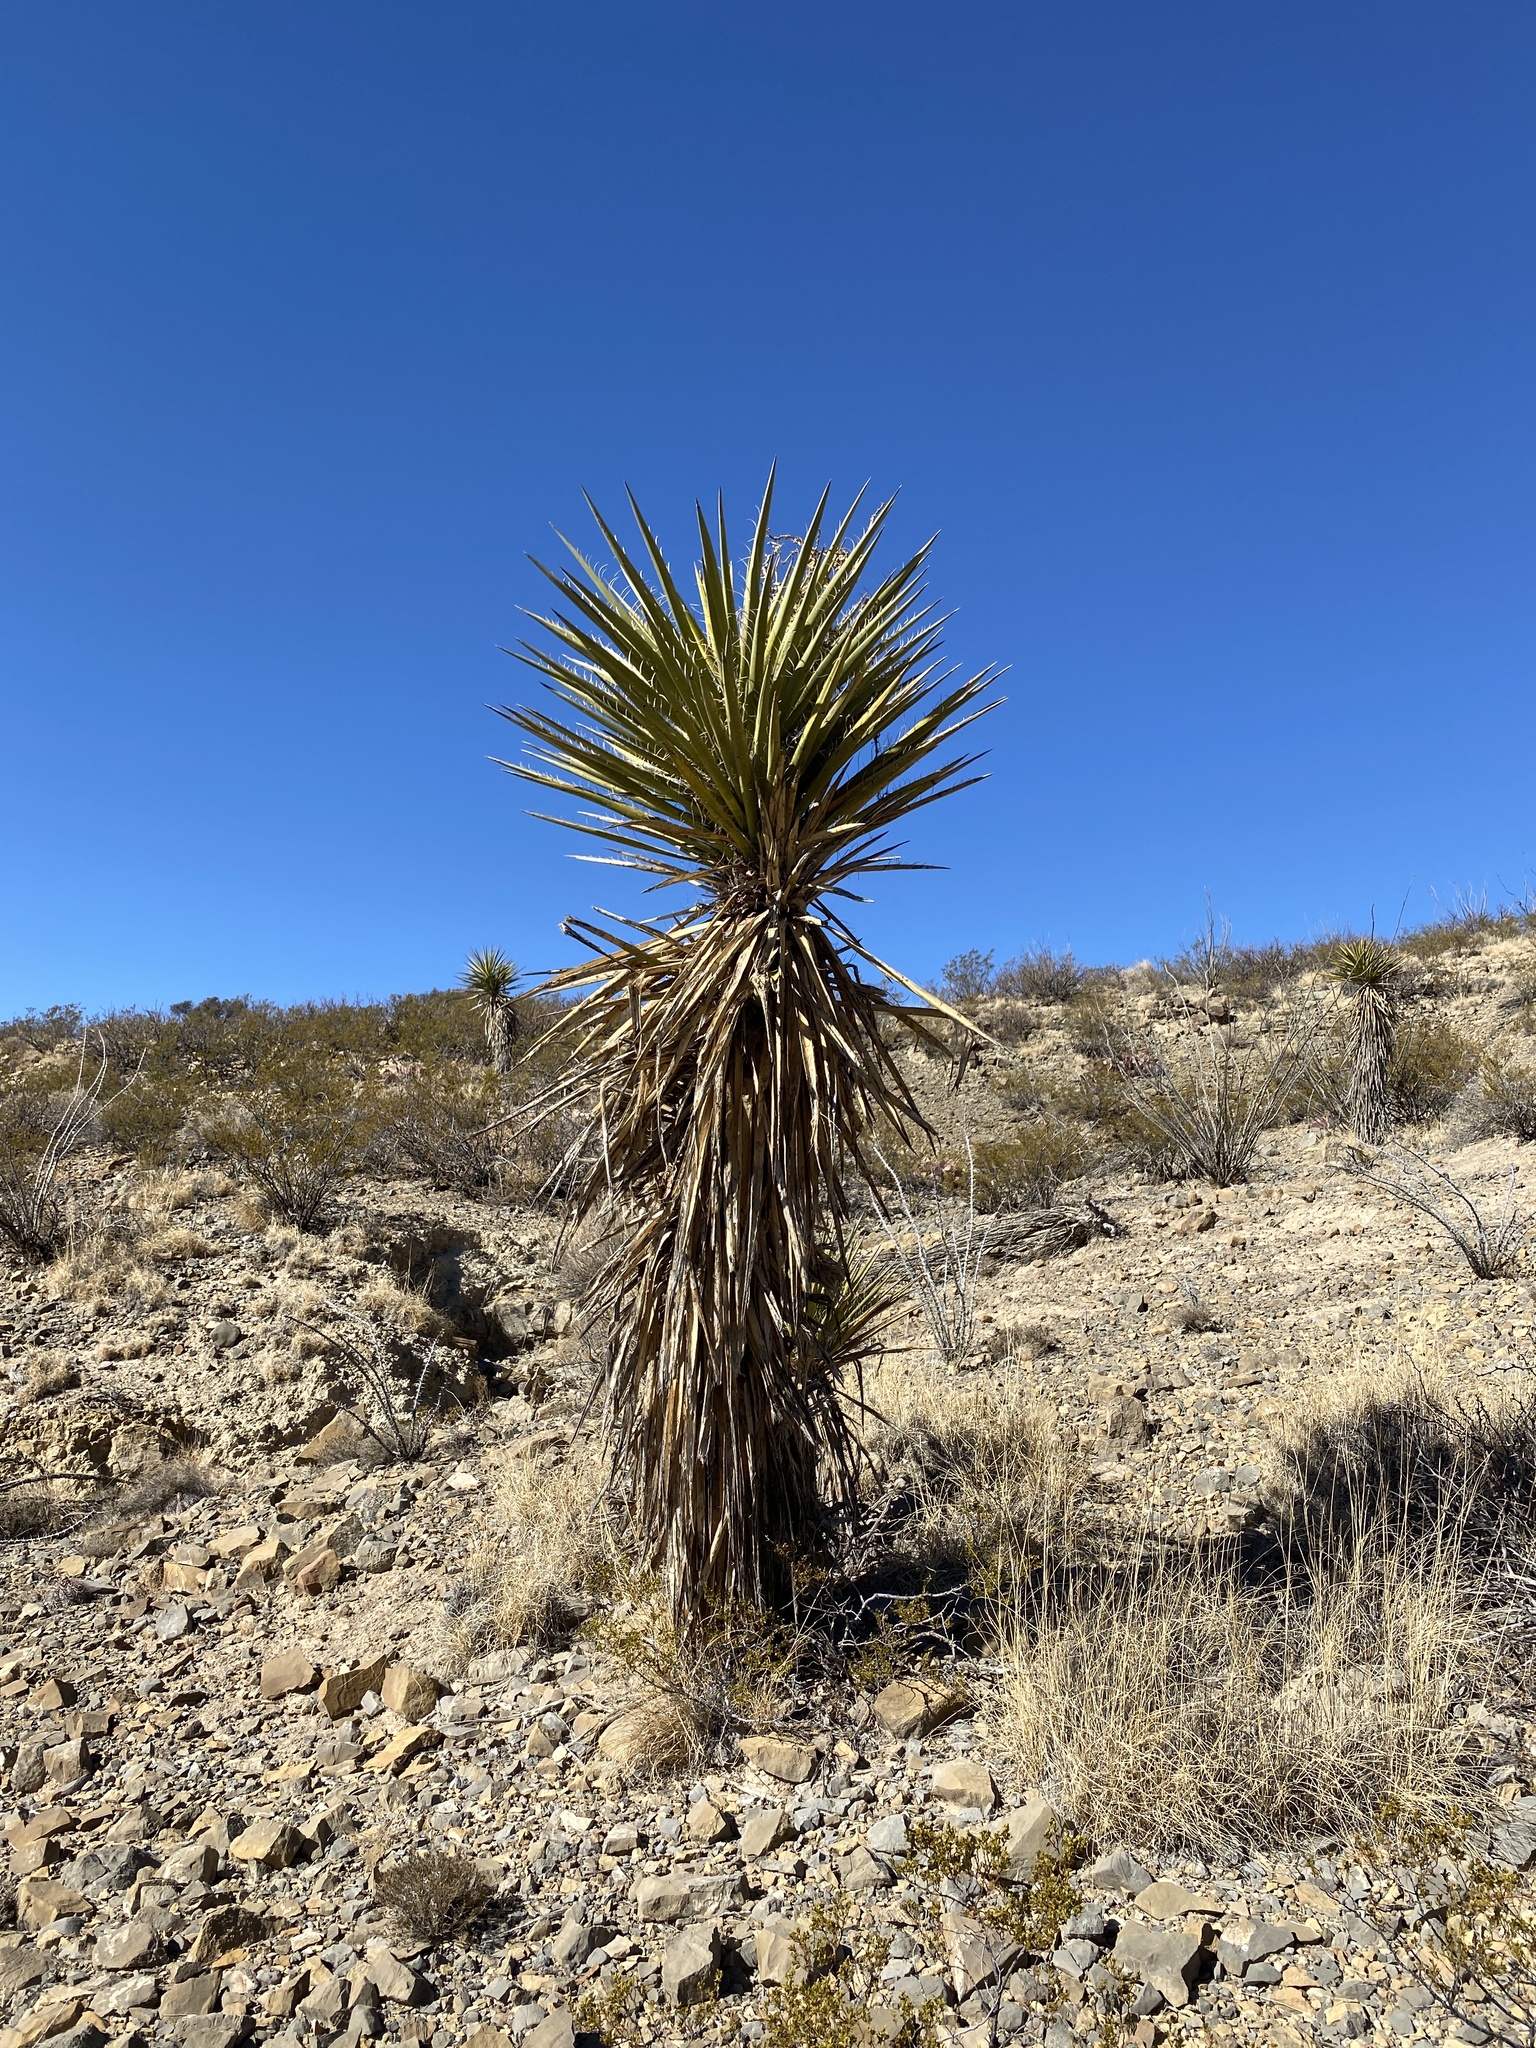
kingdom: Plantae
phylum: Tracheophyta
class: Liliopsida
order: Asparagales
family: Asparagaceae
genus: Yucca
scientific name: Yucca treculiana
